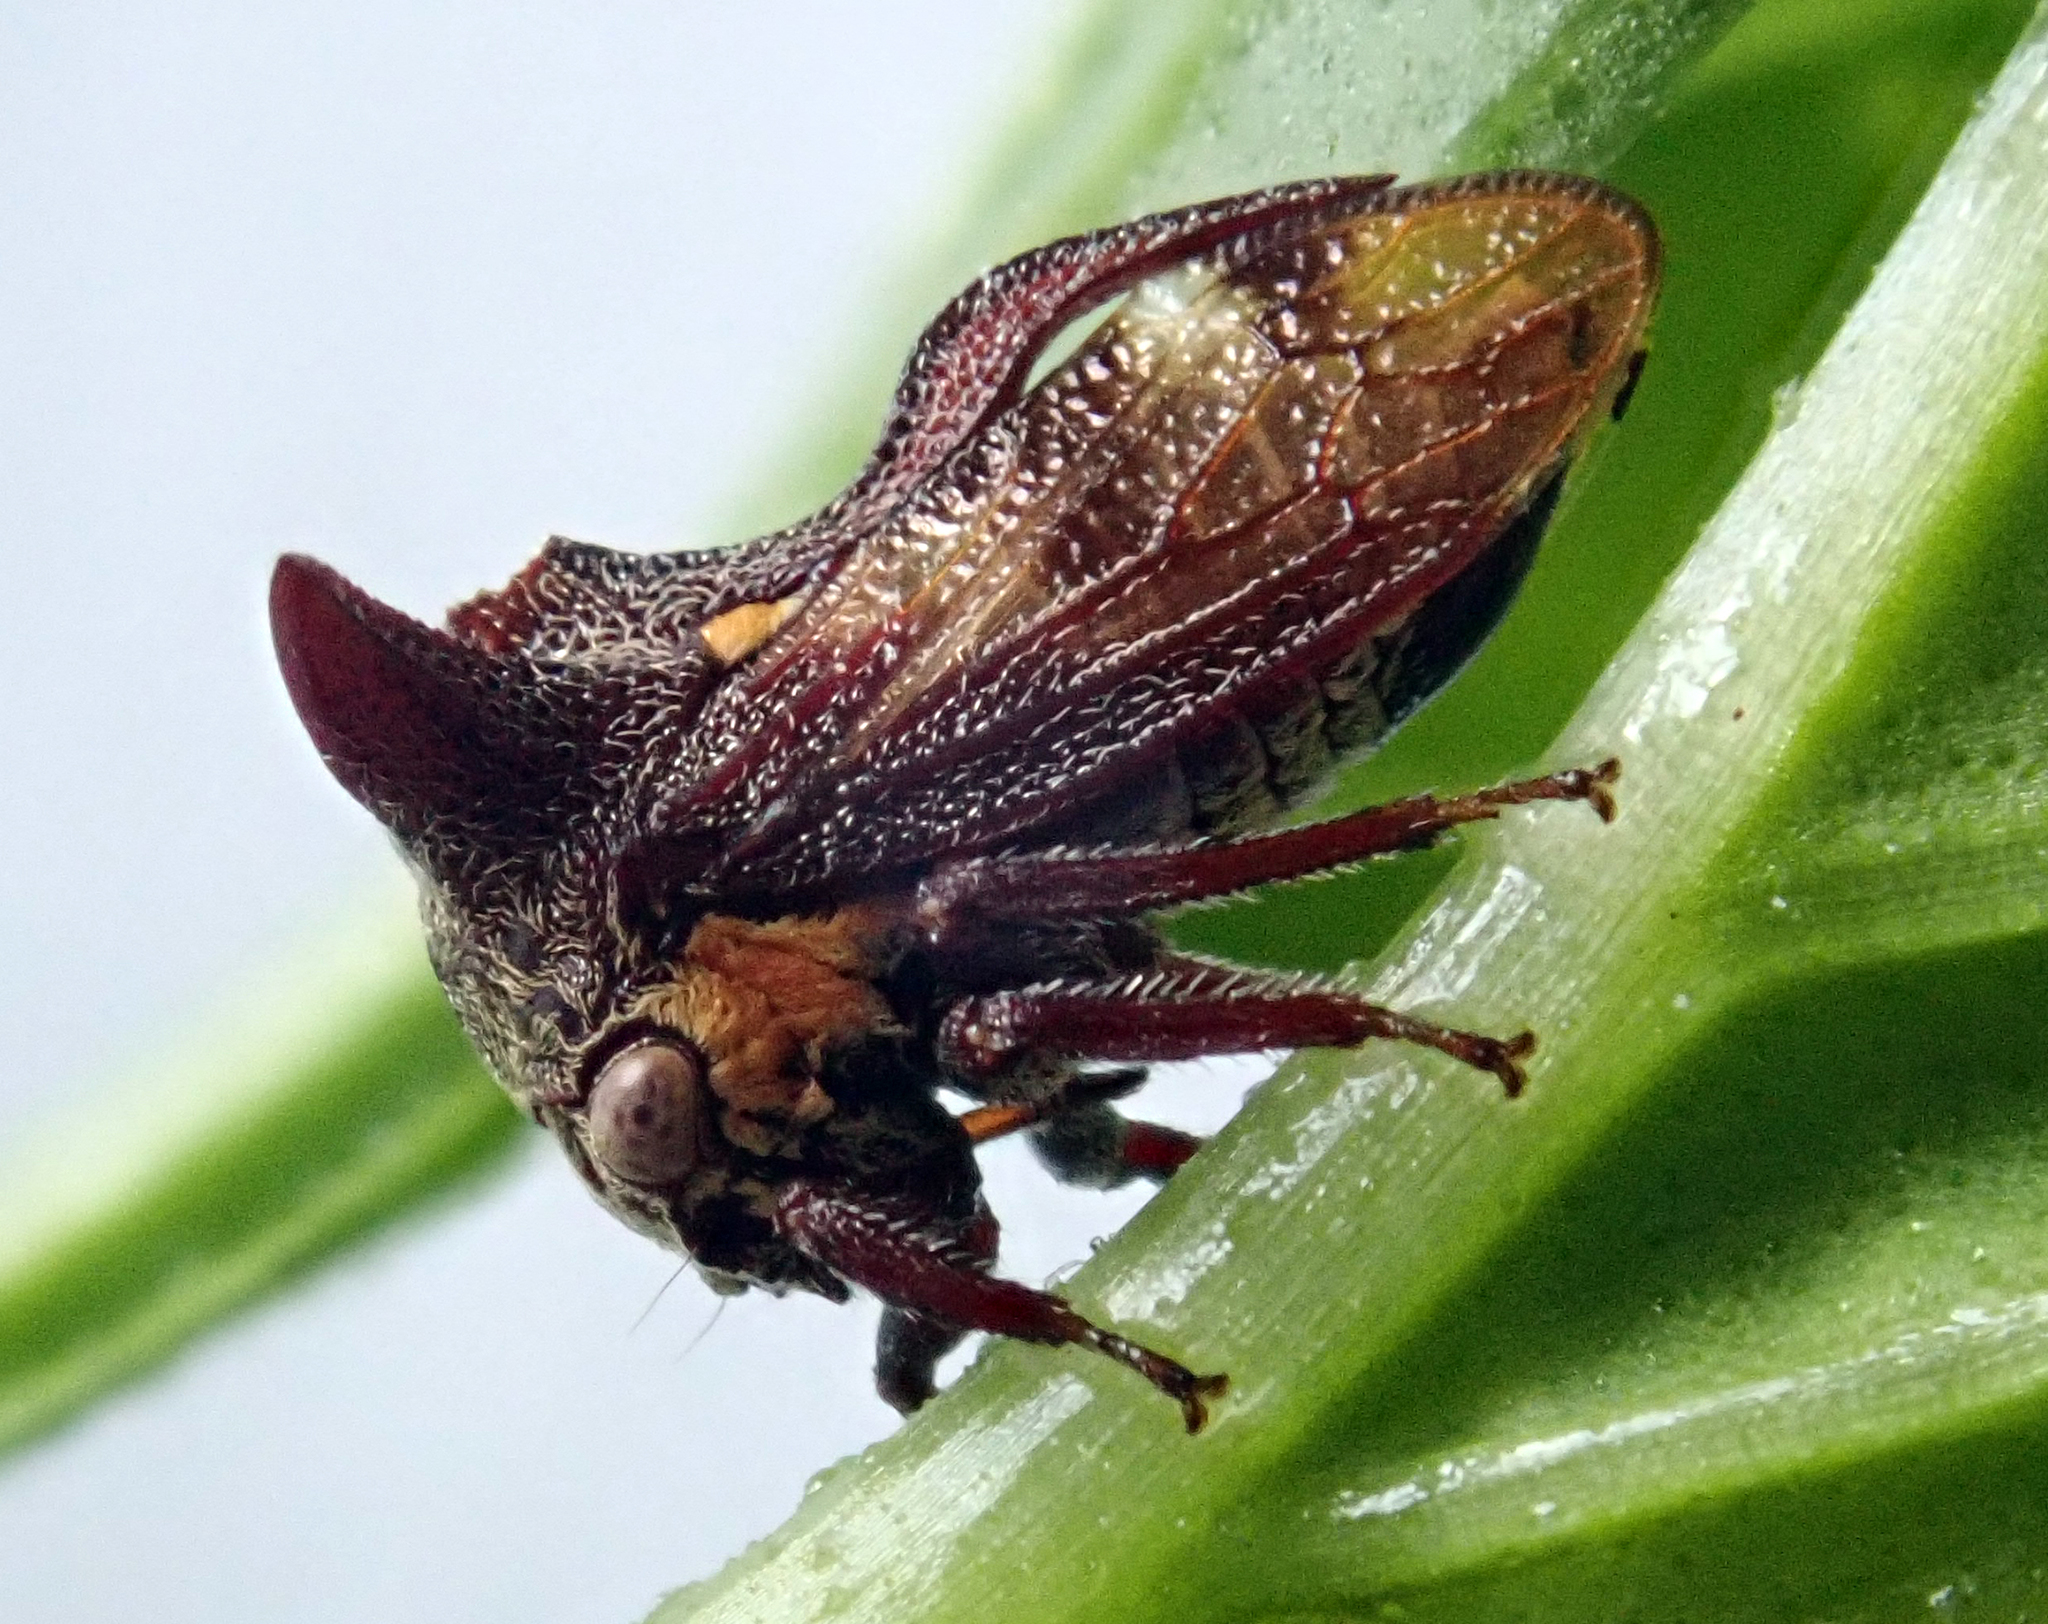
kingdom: Animalia
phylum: Arthropoda
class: Insecta
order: Hemiptera
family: Membracidae
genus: Acanthuchus
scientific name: Acanthuchus trispinifer
